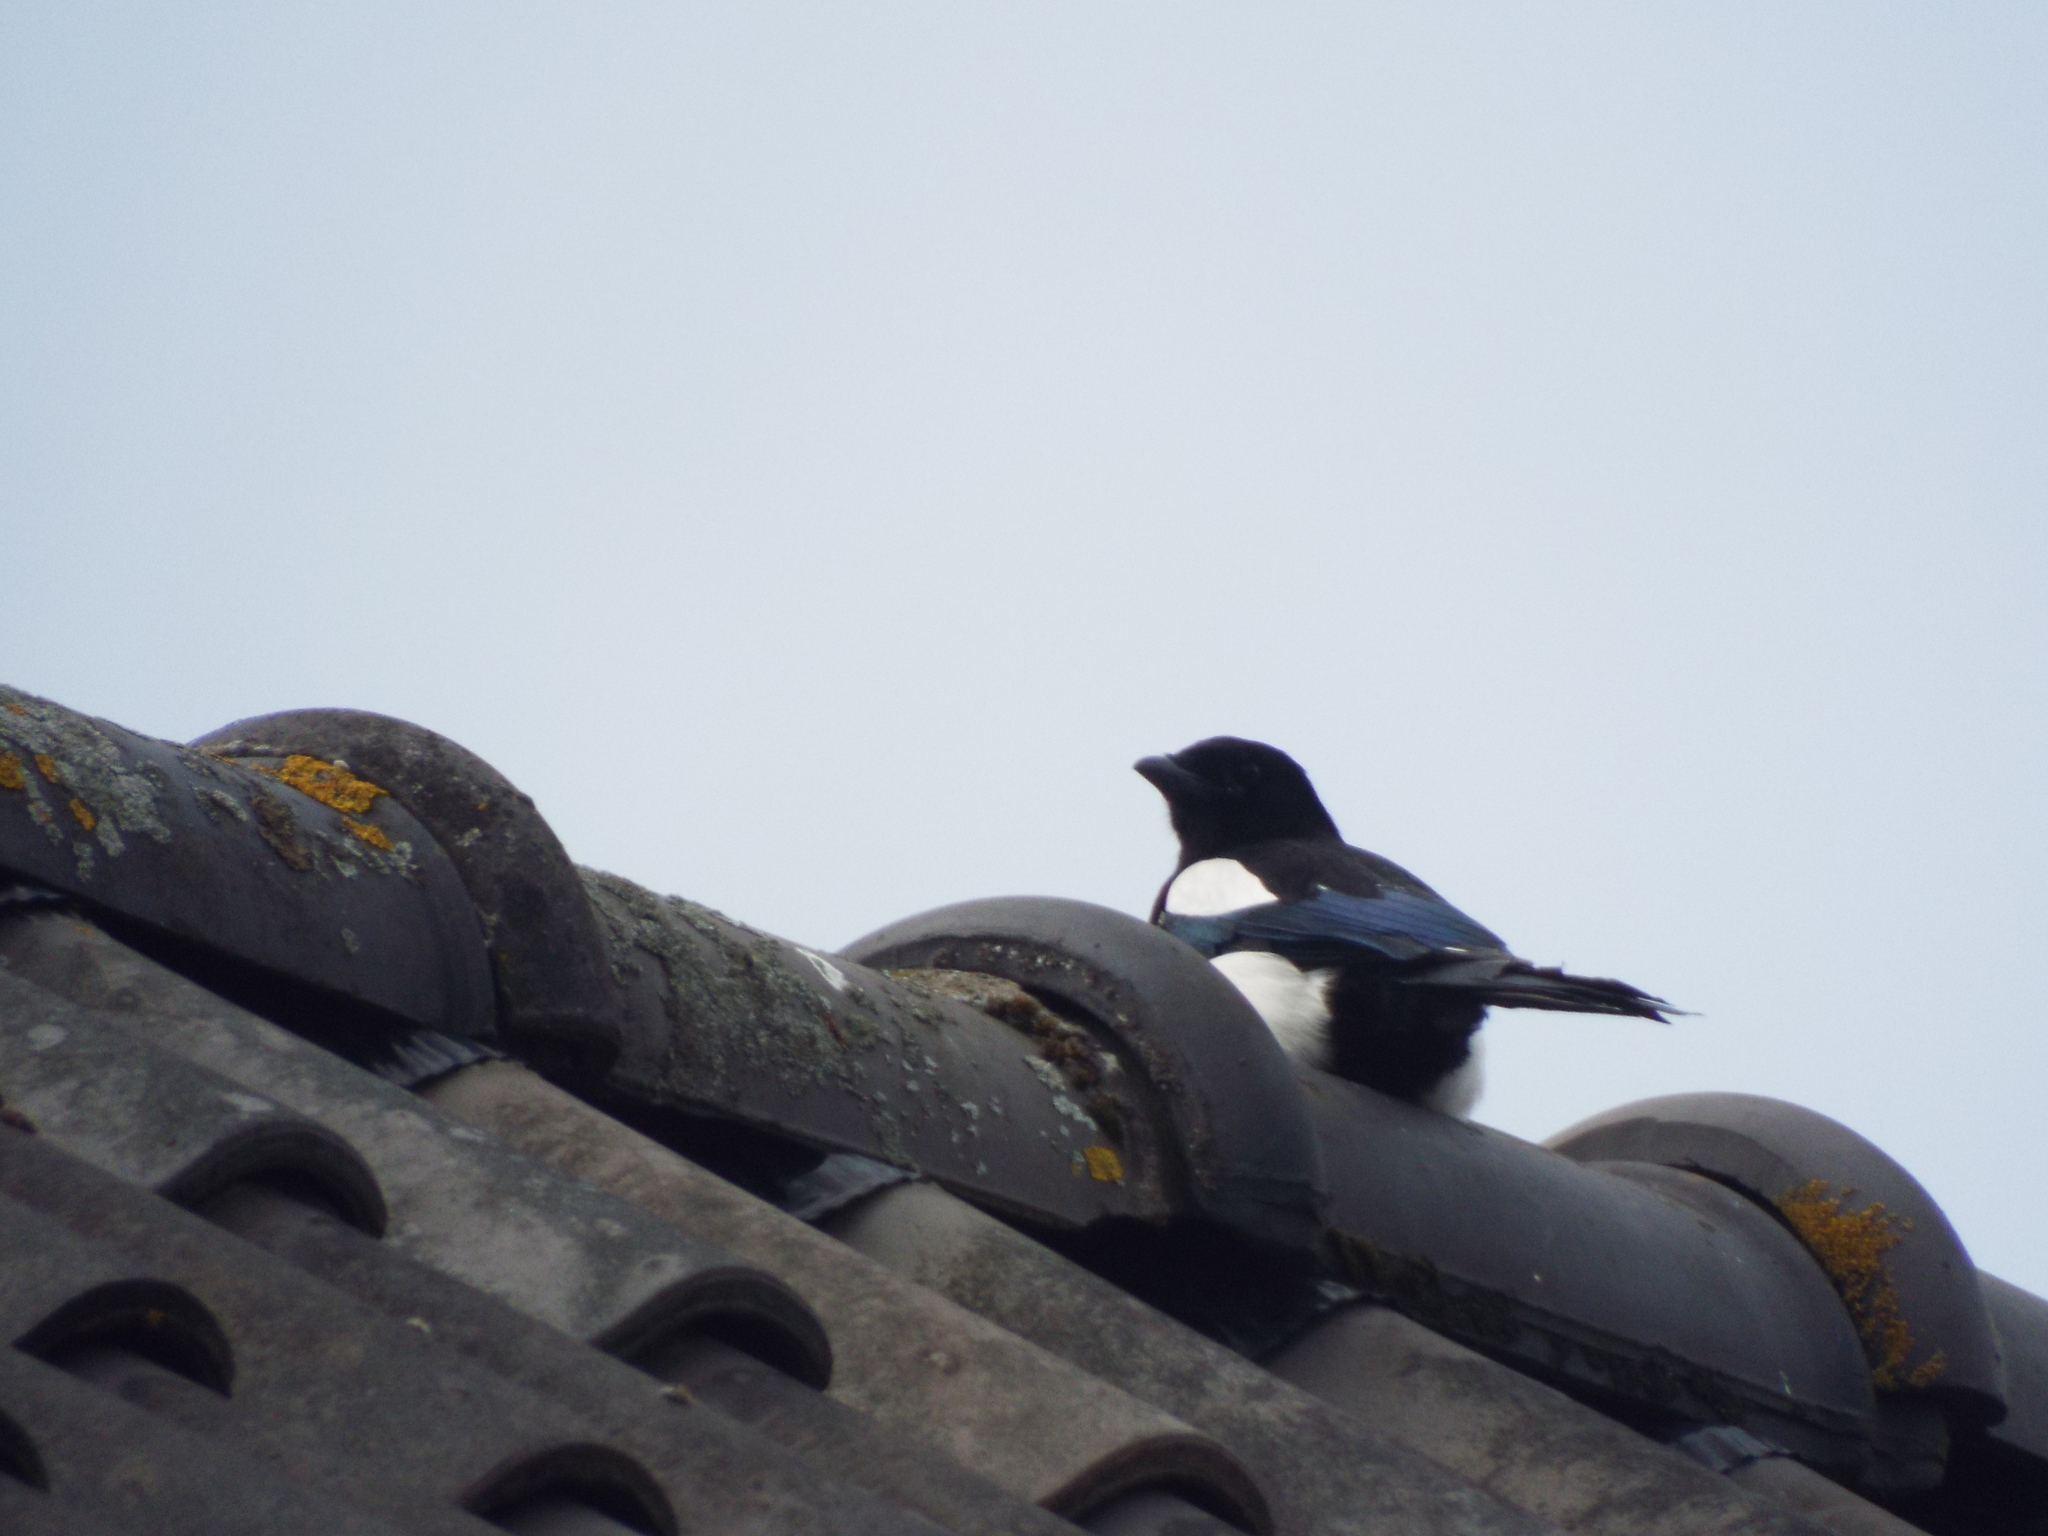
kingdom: Animalia
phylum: Chordata
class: Aves
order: Passeriformes
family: Corvidae
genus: Pica
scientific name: Pica pica
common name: Eurasian magpie
